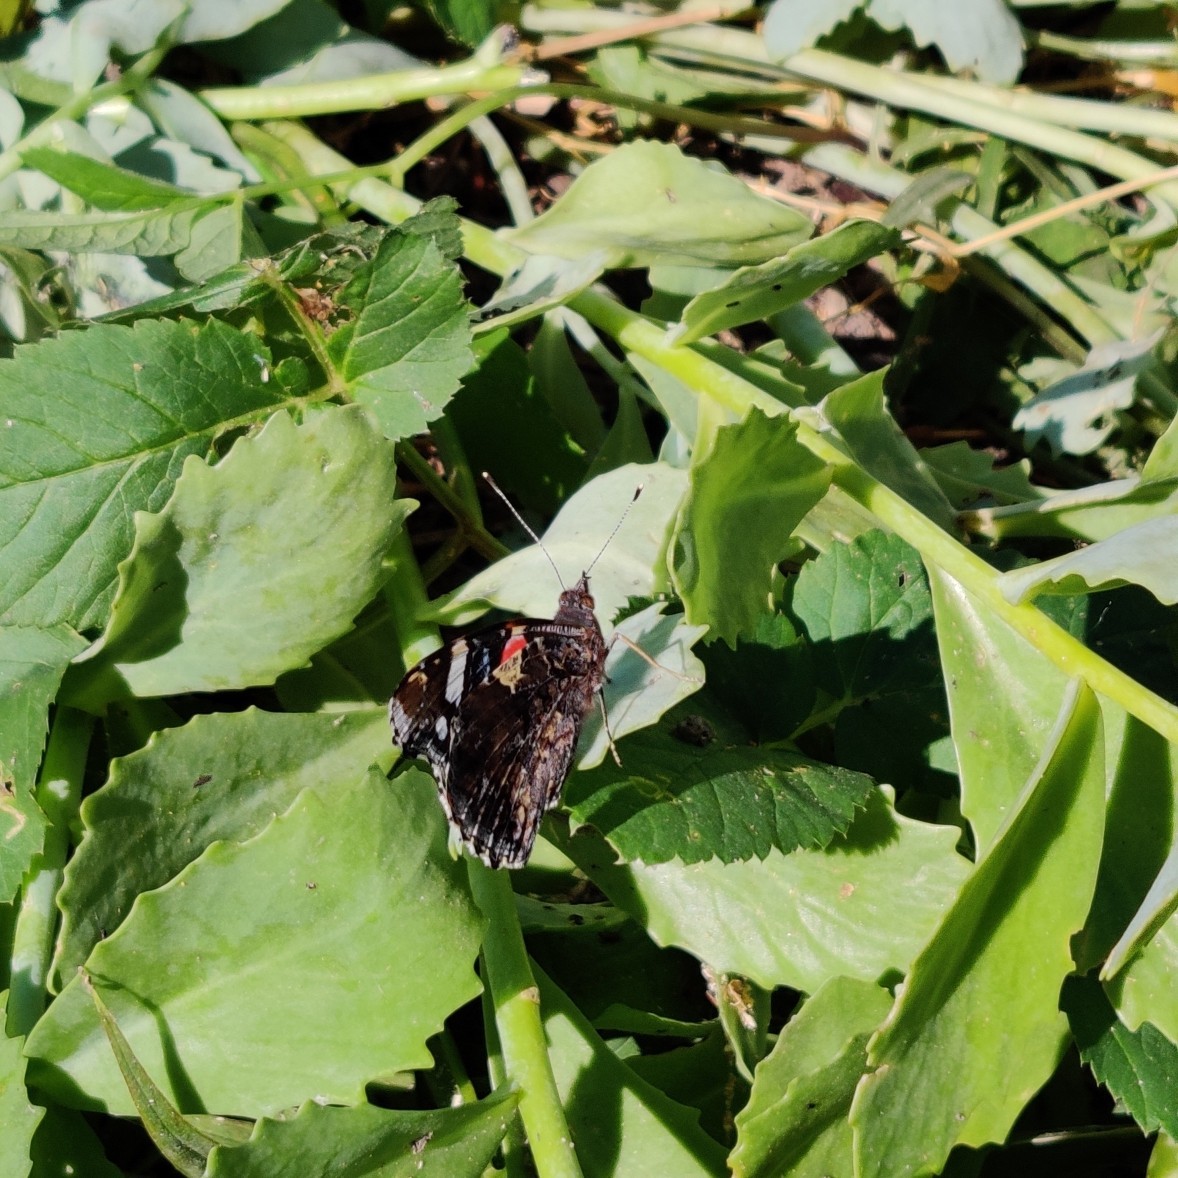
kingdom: Animalia
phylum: Arthropoda
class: Insecta
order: Lepidoptera
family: Nymphalidae
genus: Vanessa
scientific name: Vanessa atalanta
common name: Red admiral
